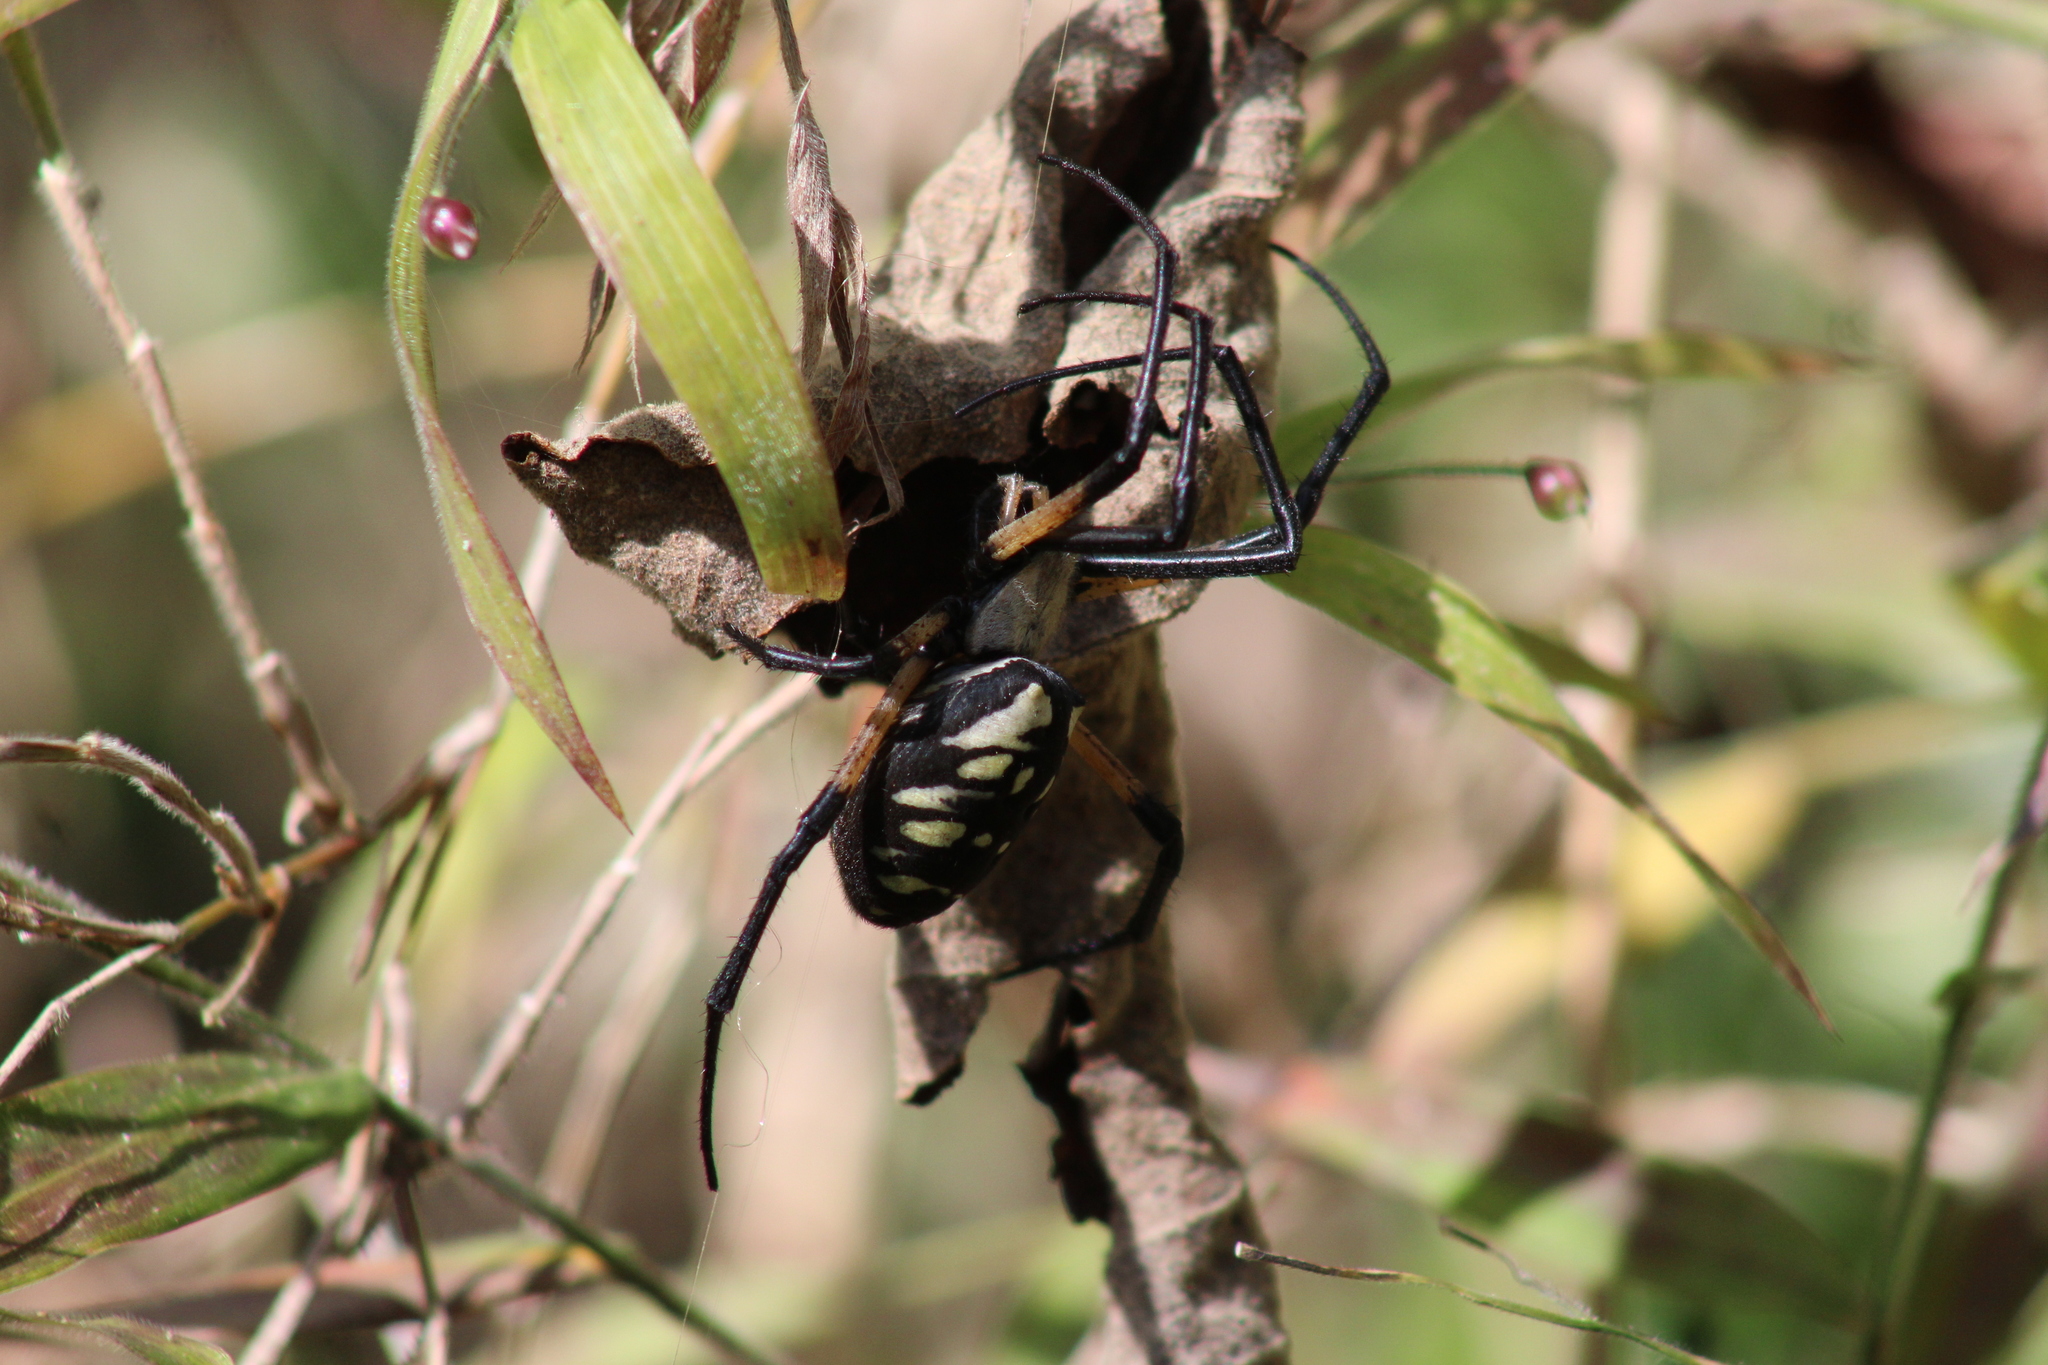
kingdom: Animalia
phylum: Arthropoda
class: Arachnida
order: Araneae
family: Araneidae
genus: Argiope
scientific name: Argiope aurantia
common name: Orb weavers
